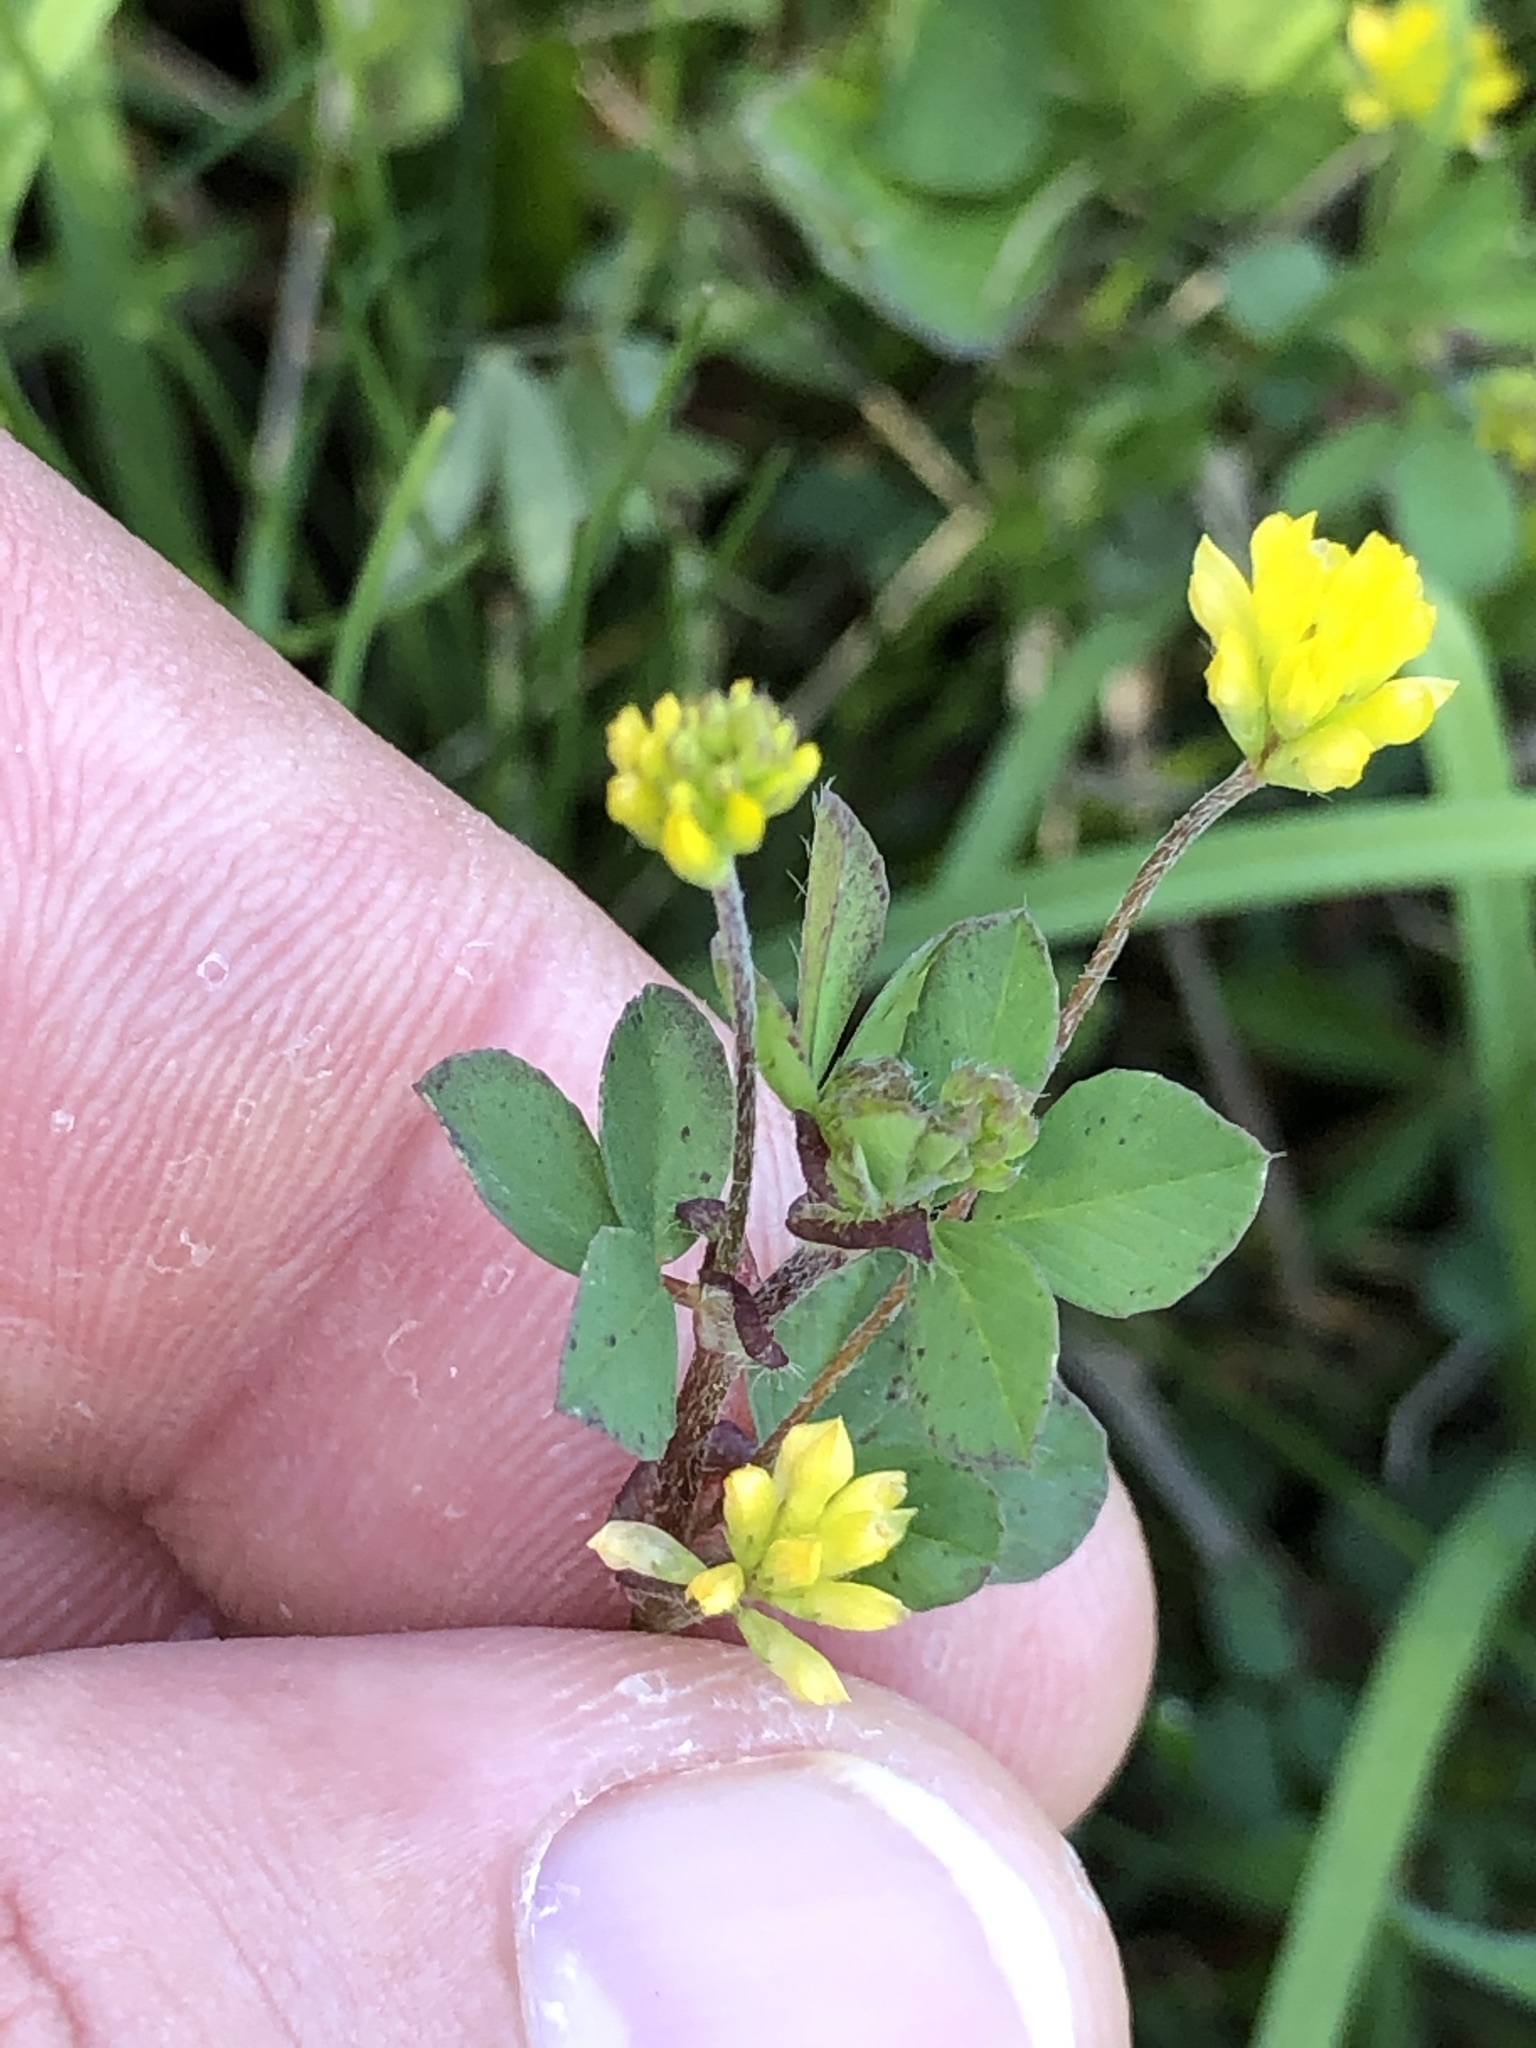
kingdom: Plantae
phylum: Tracheophyta
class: Magnoliopsida
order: Fabales
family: Fabaceae
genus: Trifolium
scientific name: Trifolium dubium
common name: Suckling clover
